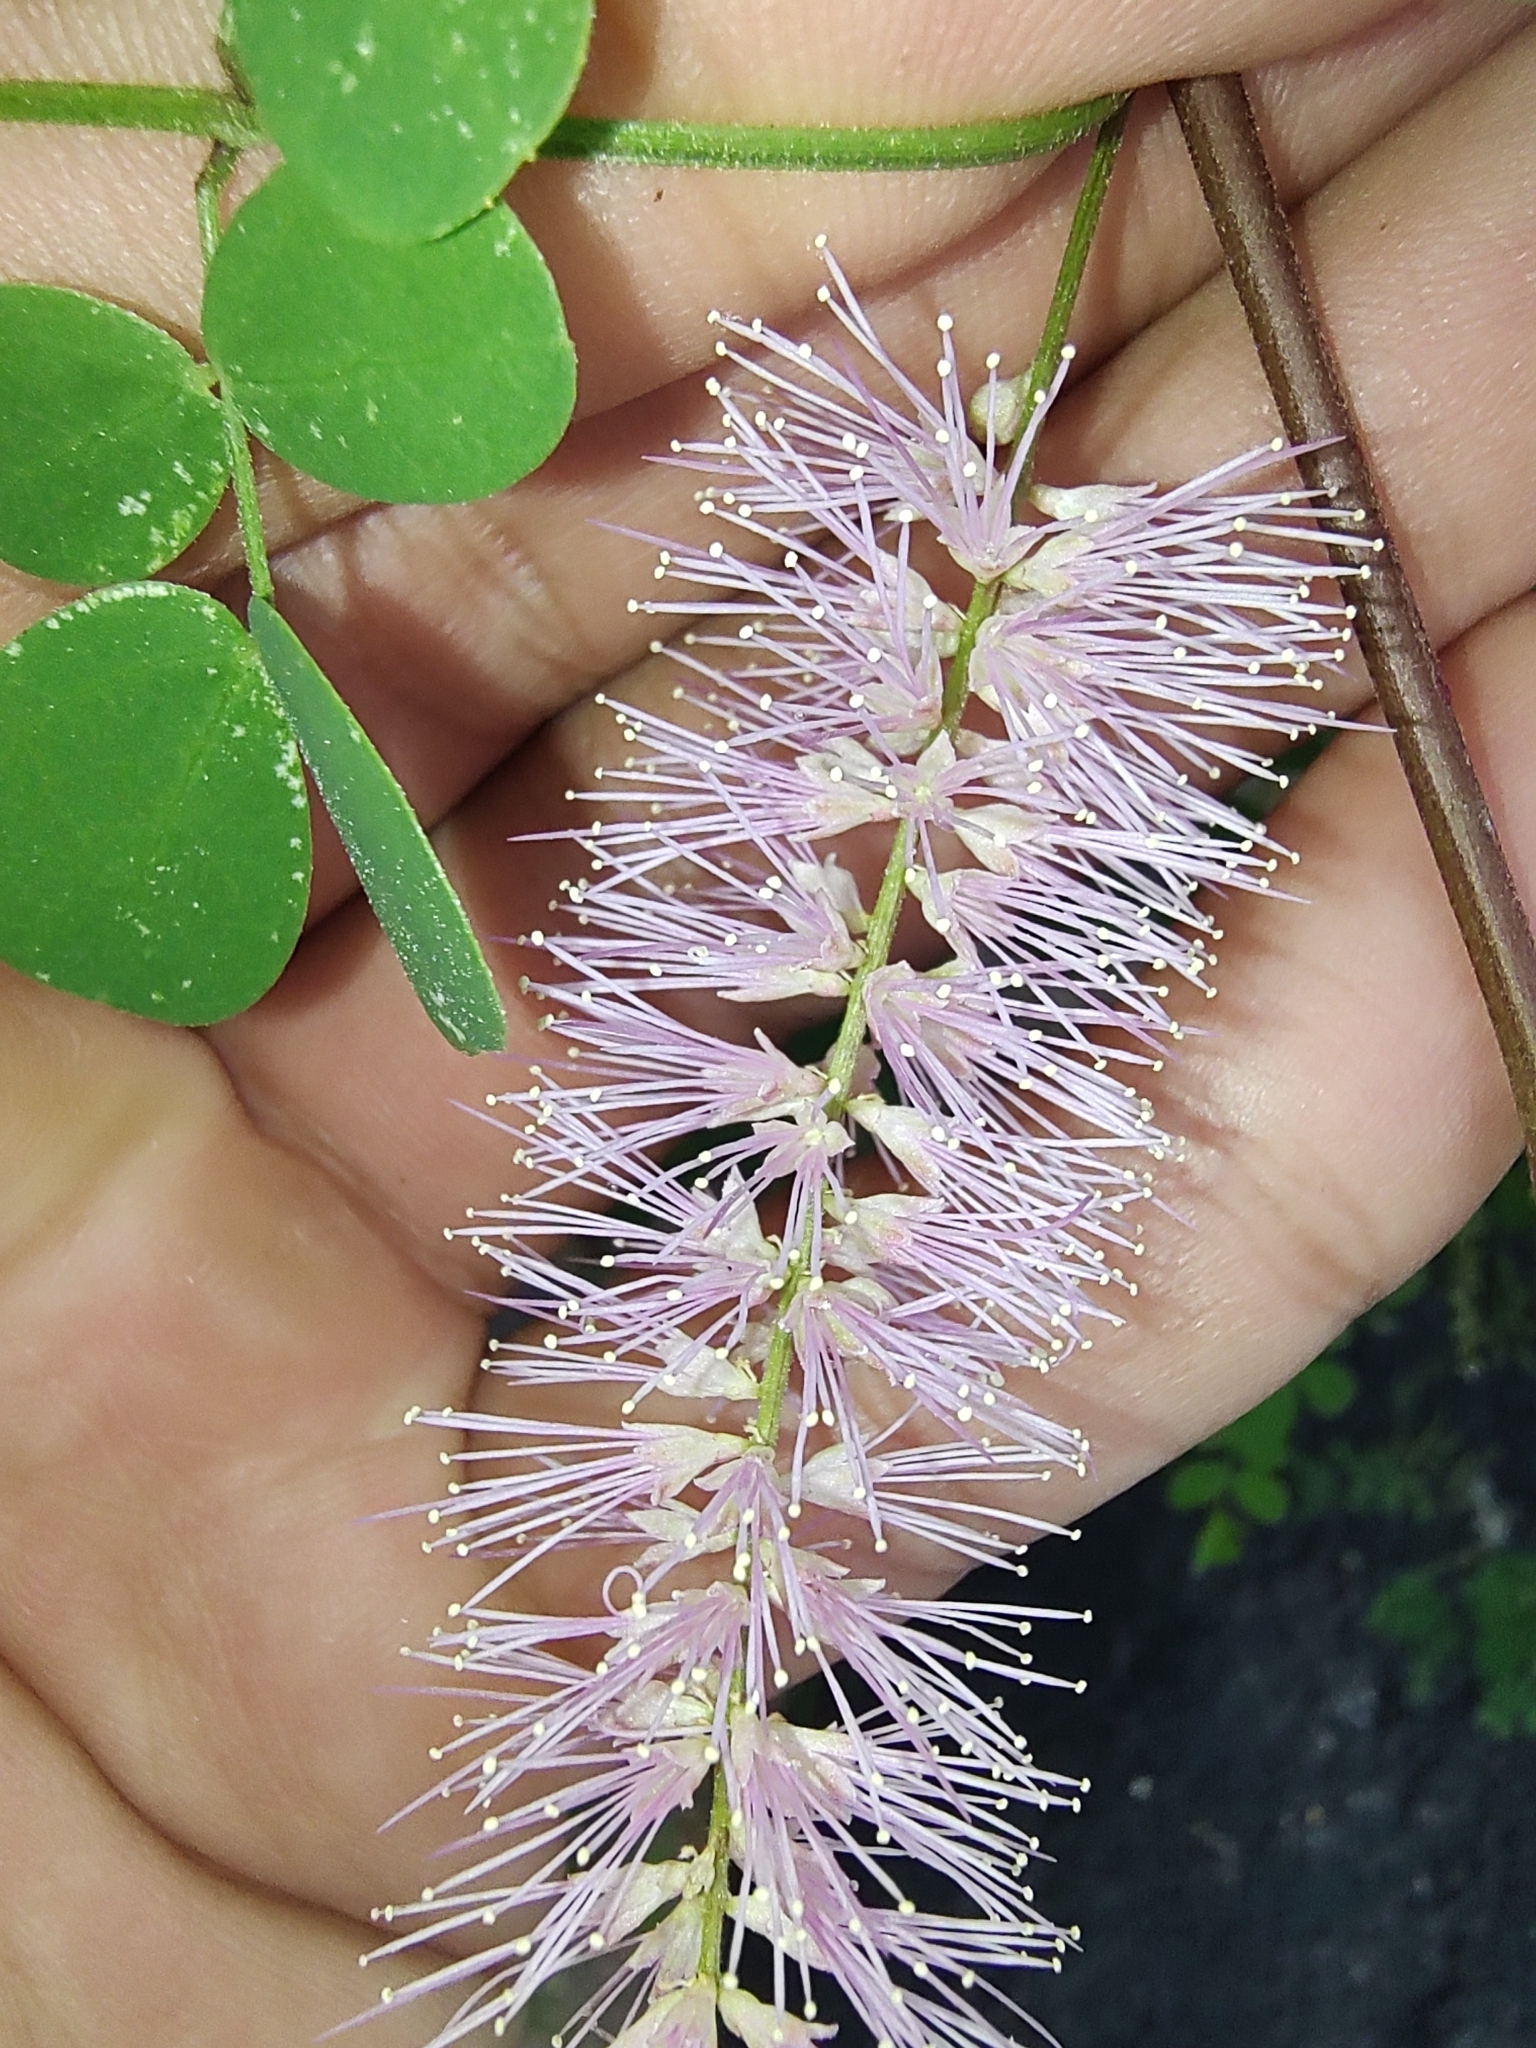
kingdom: Plantae
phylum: Tracheophyta
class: Magnoliopsida
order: Fabales
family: Fabaceae
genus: Mimosa
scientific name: Mimosa distachya
